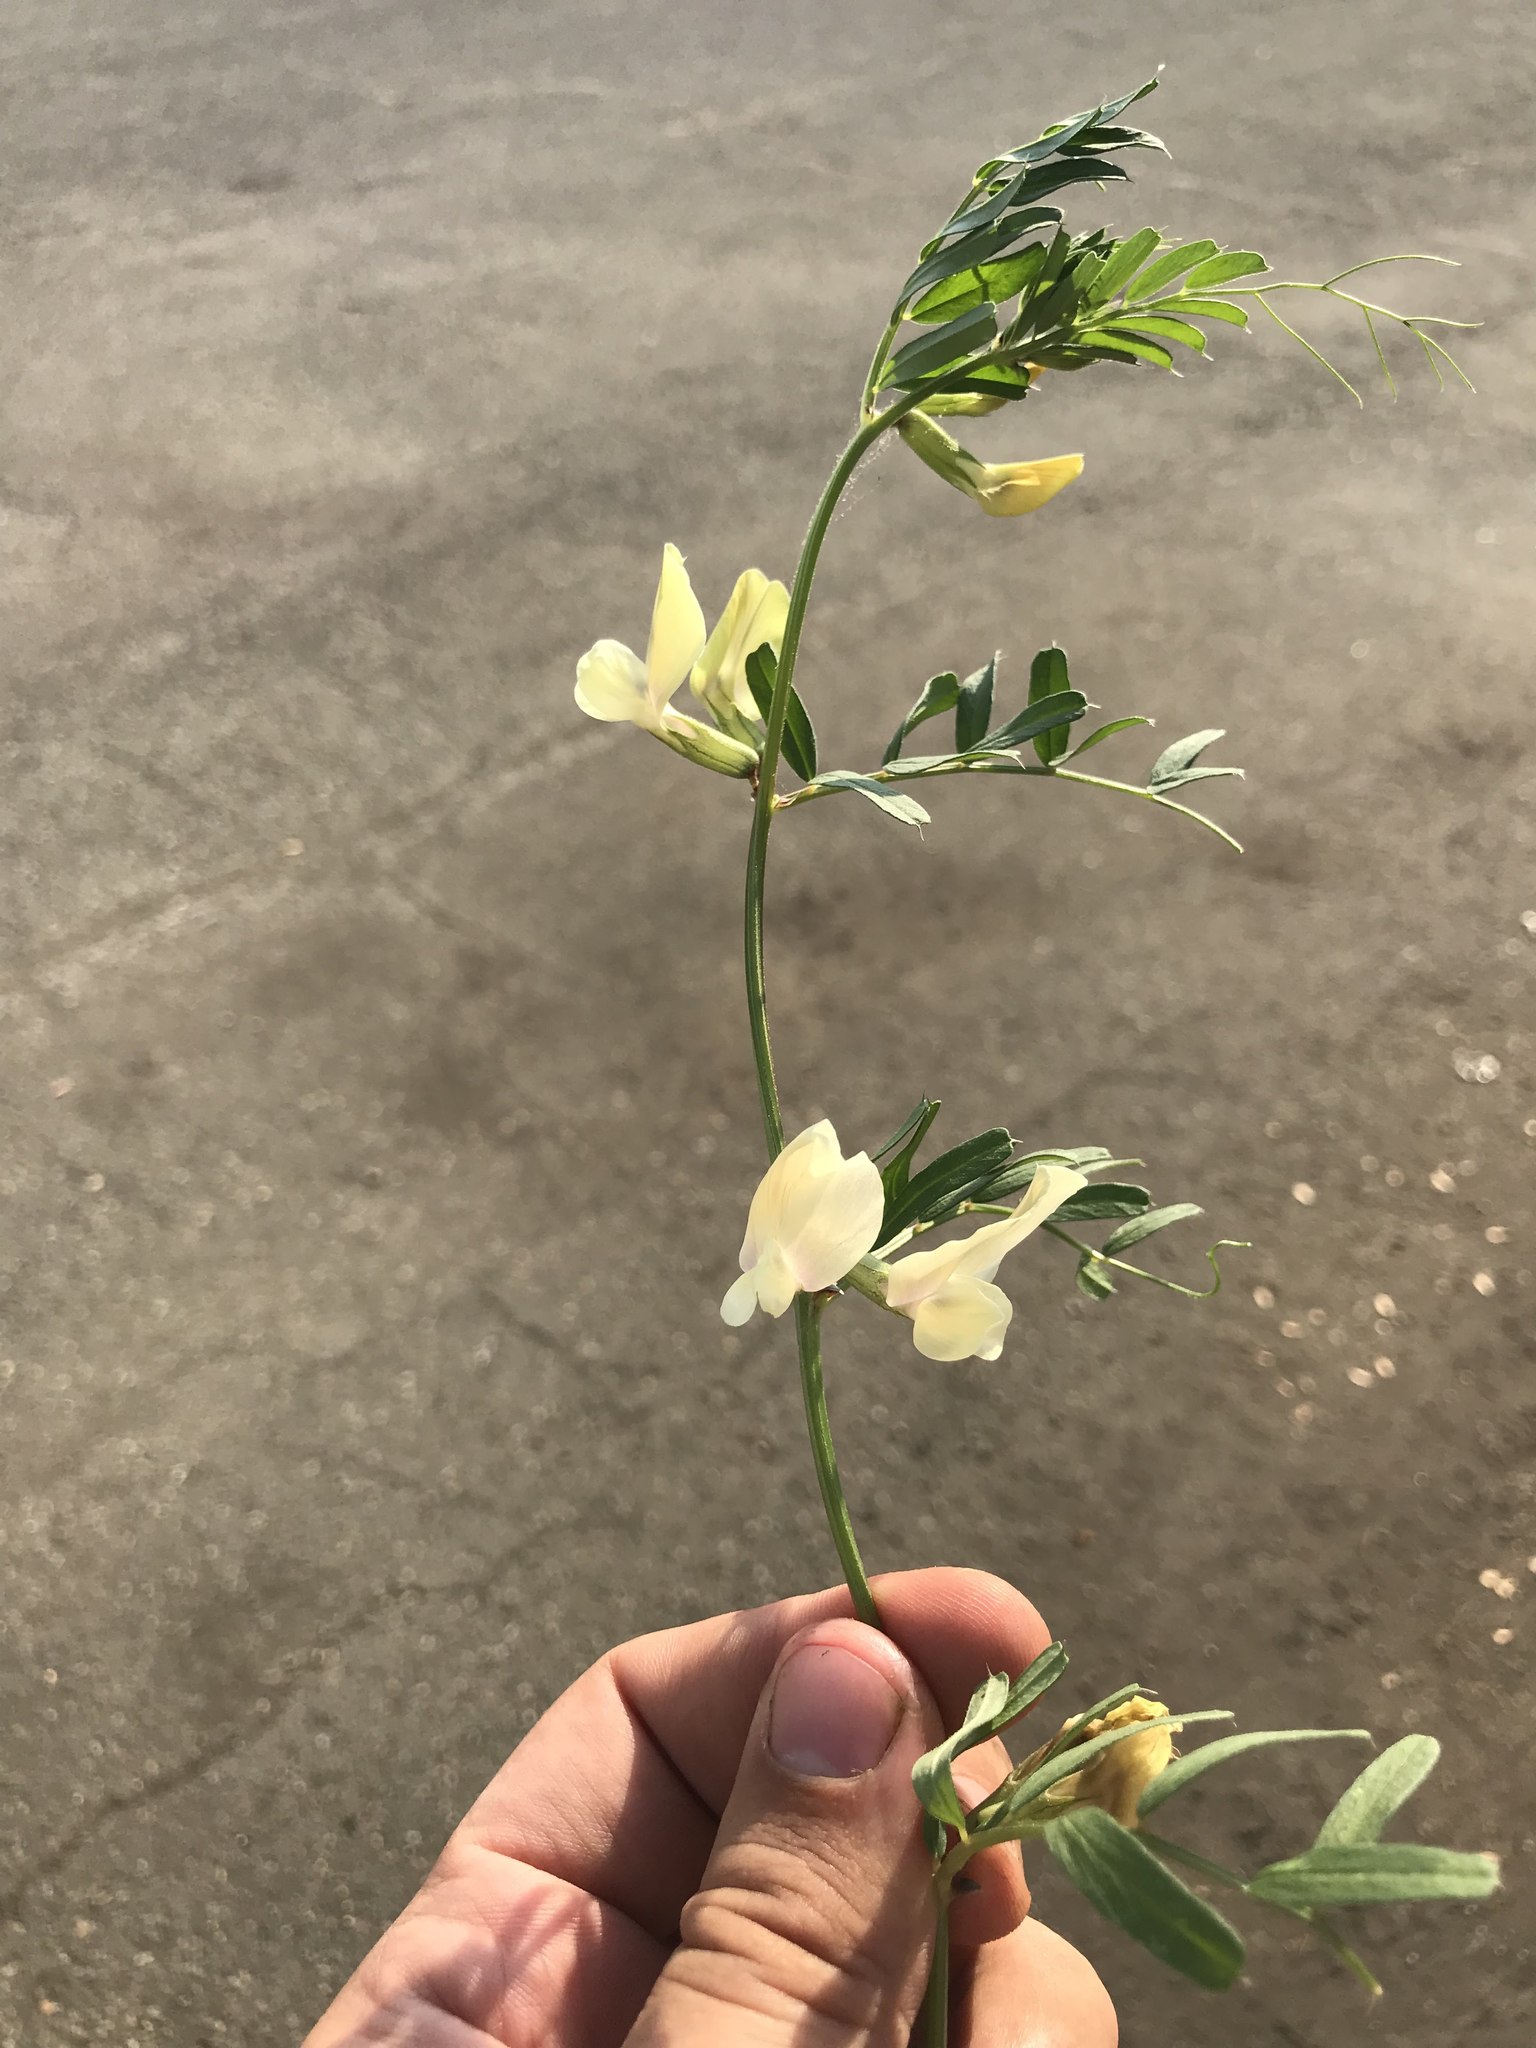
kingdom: Plantae
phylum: Tracheophyta
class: Magnoliopsida
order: Fabales
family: Fabaceae
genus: Vicia
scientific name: Vicia grandiflora
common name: Large yellow vetch
